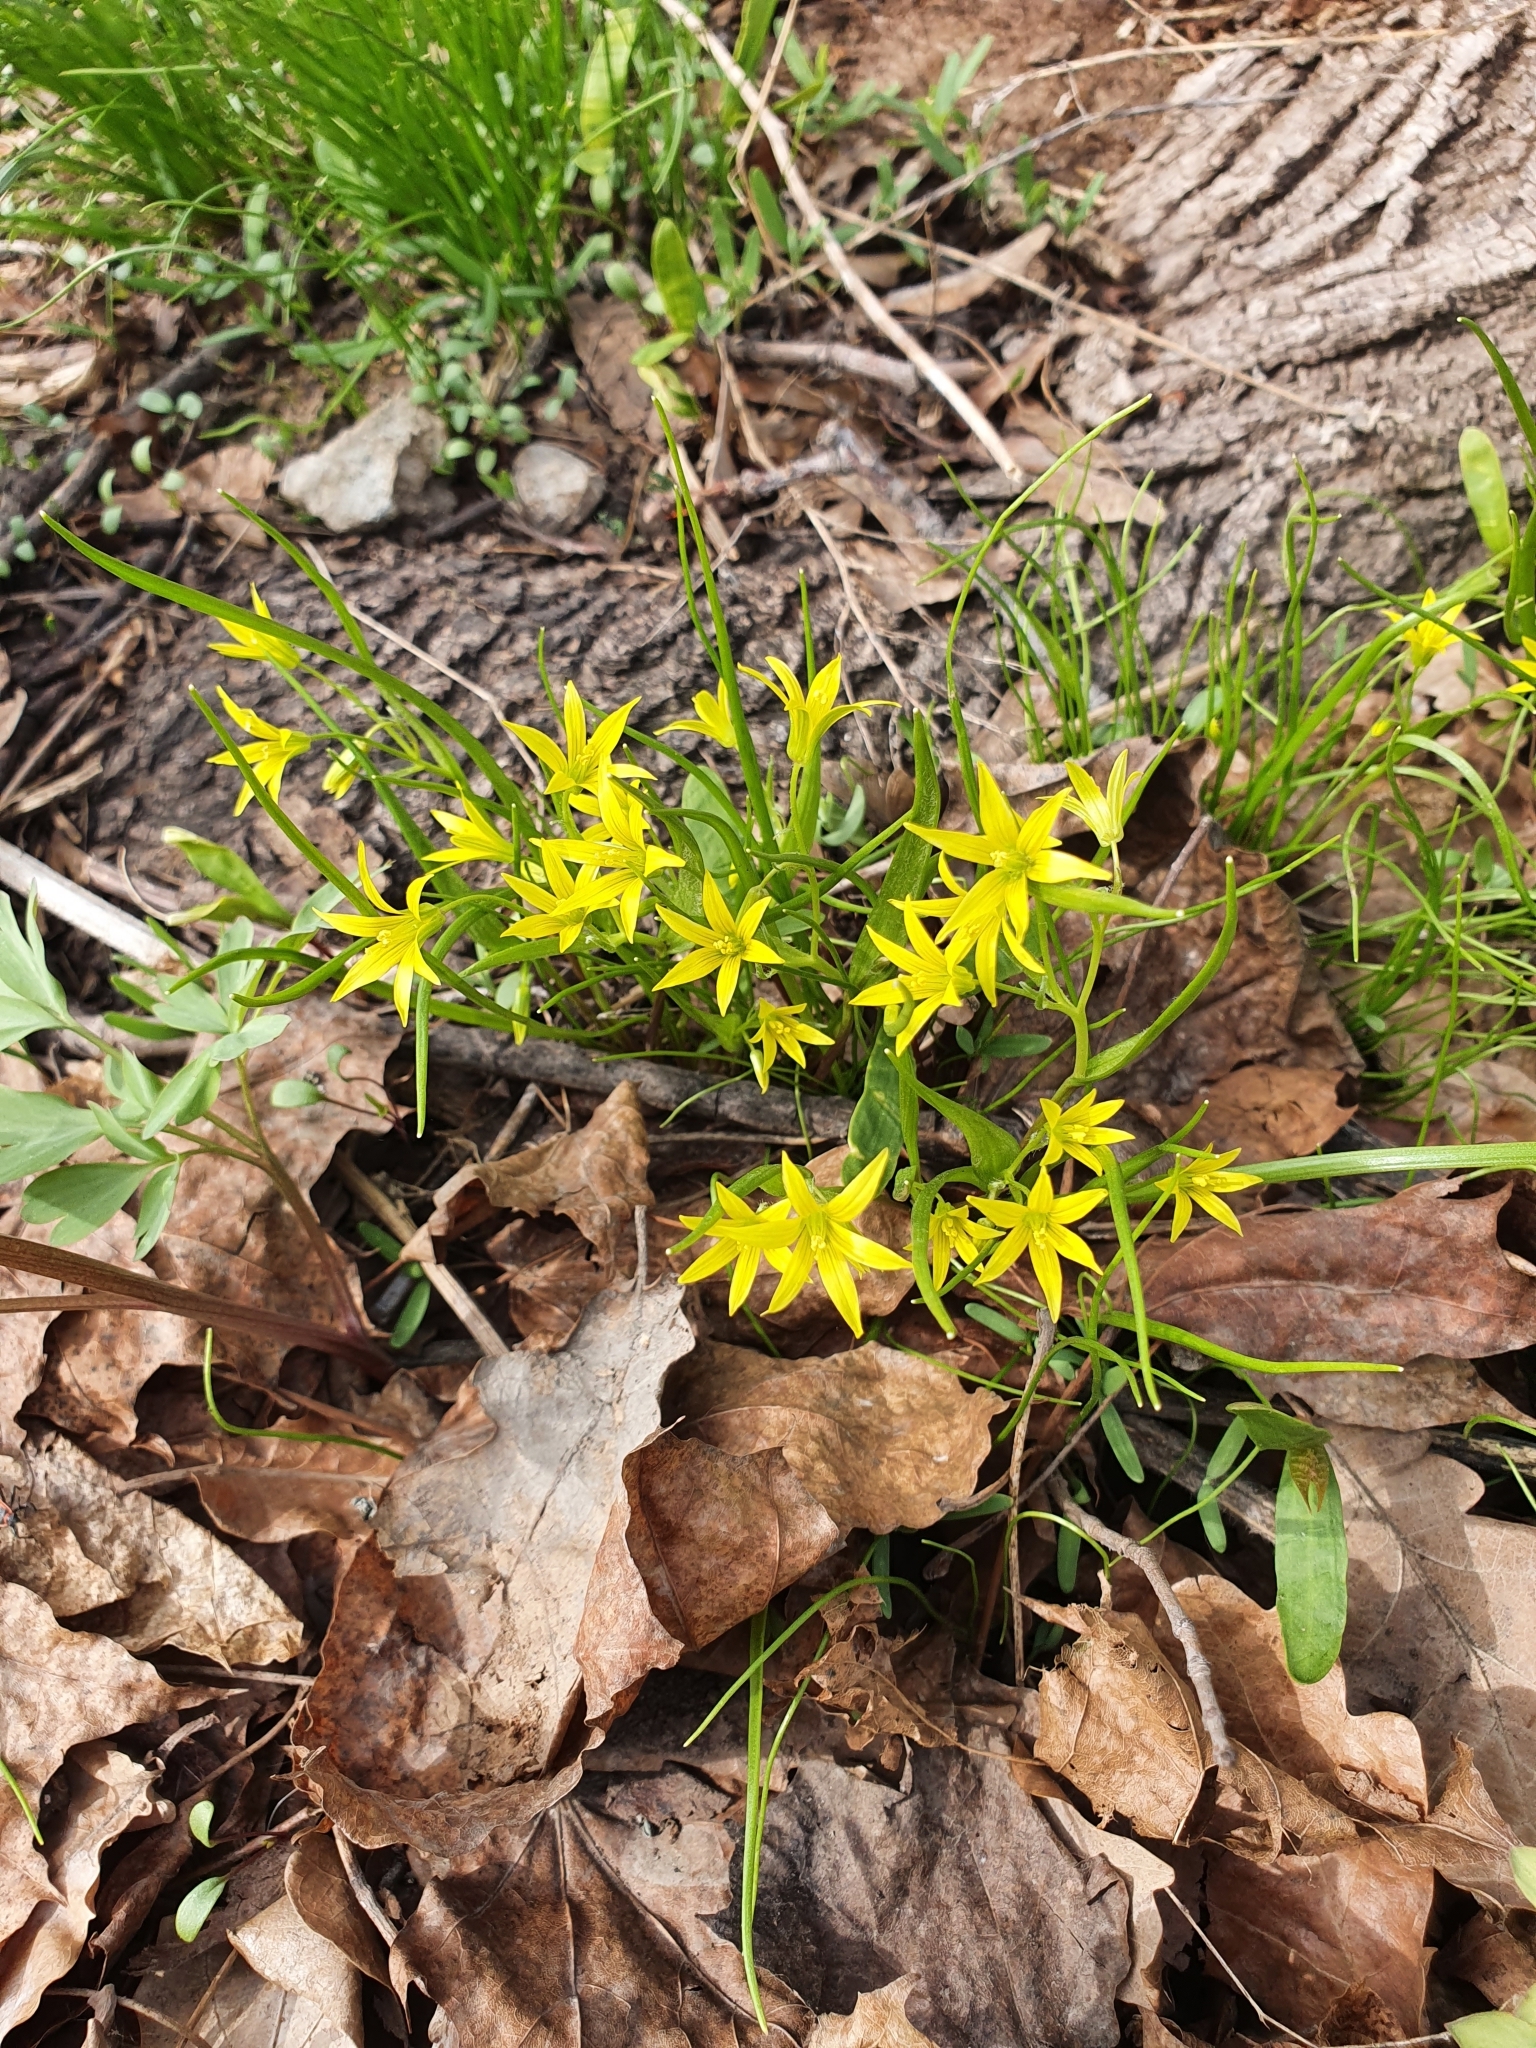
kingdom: Plantae
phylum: Tracheophyta
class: Liliopsida
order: Liliales
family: Liliaceae
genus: Gagea
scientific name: Gagea minima
